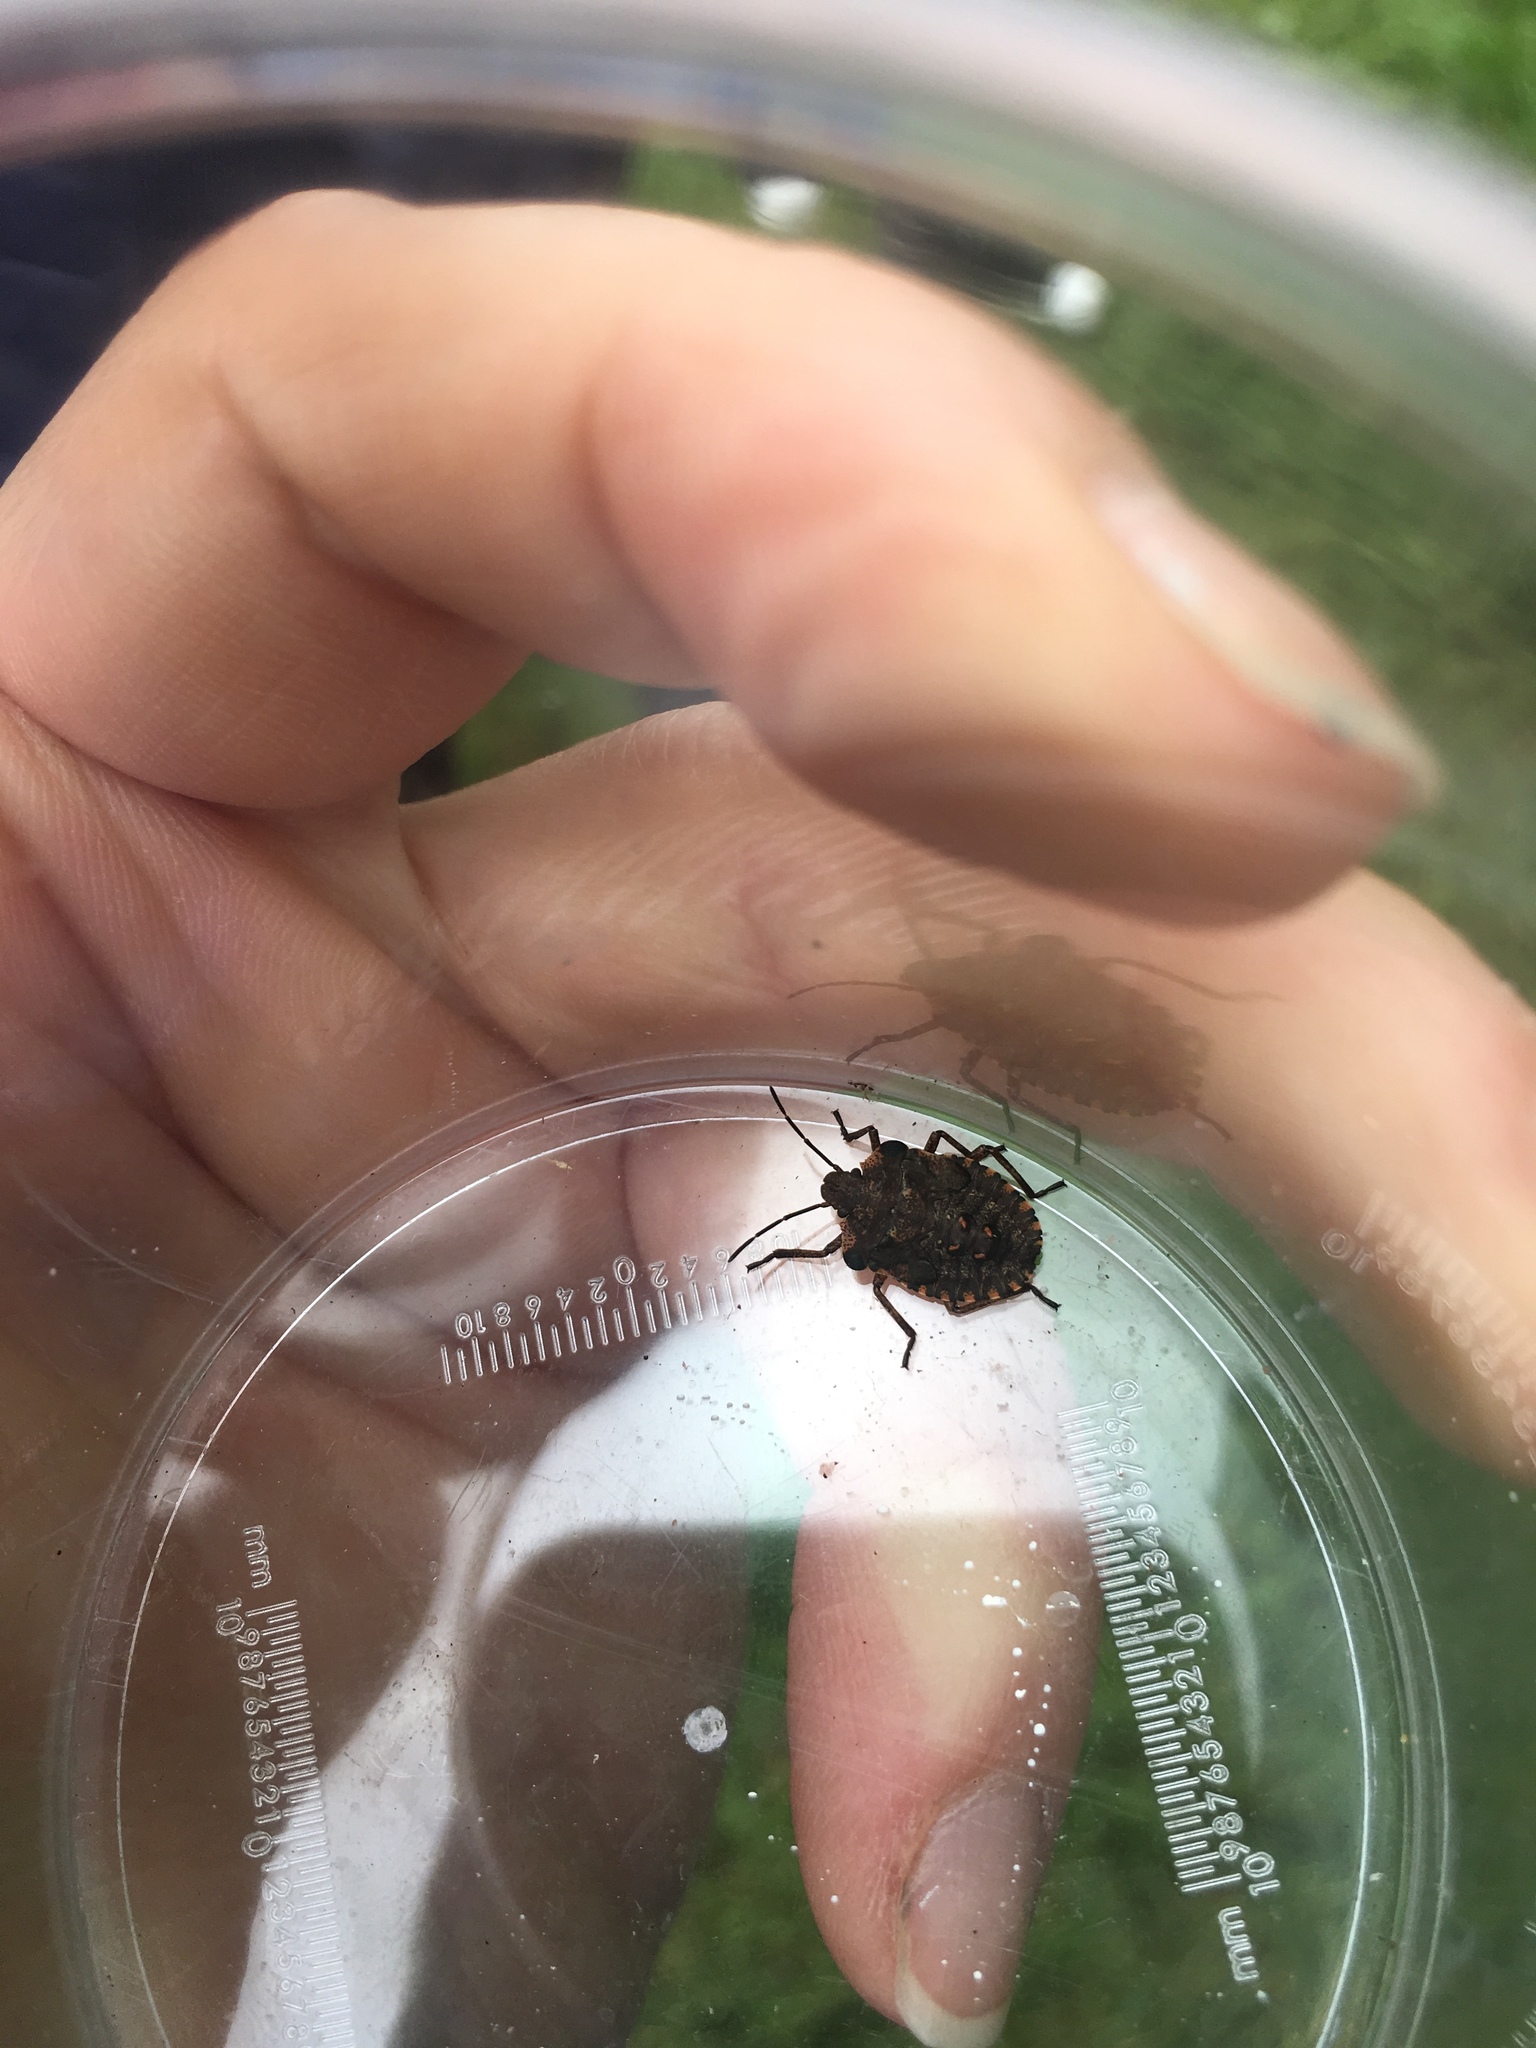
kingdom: Animalia
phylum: Arthropoda
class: Insecta
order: Hemiptera
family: Pentatomidae
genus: Pentatoma
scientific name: Pentatoma rufipes
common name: Forest bug
